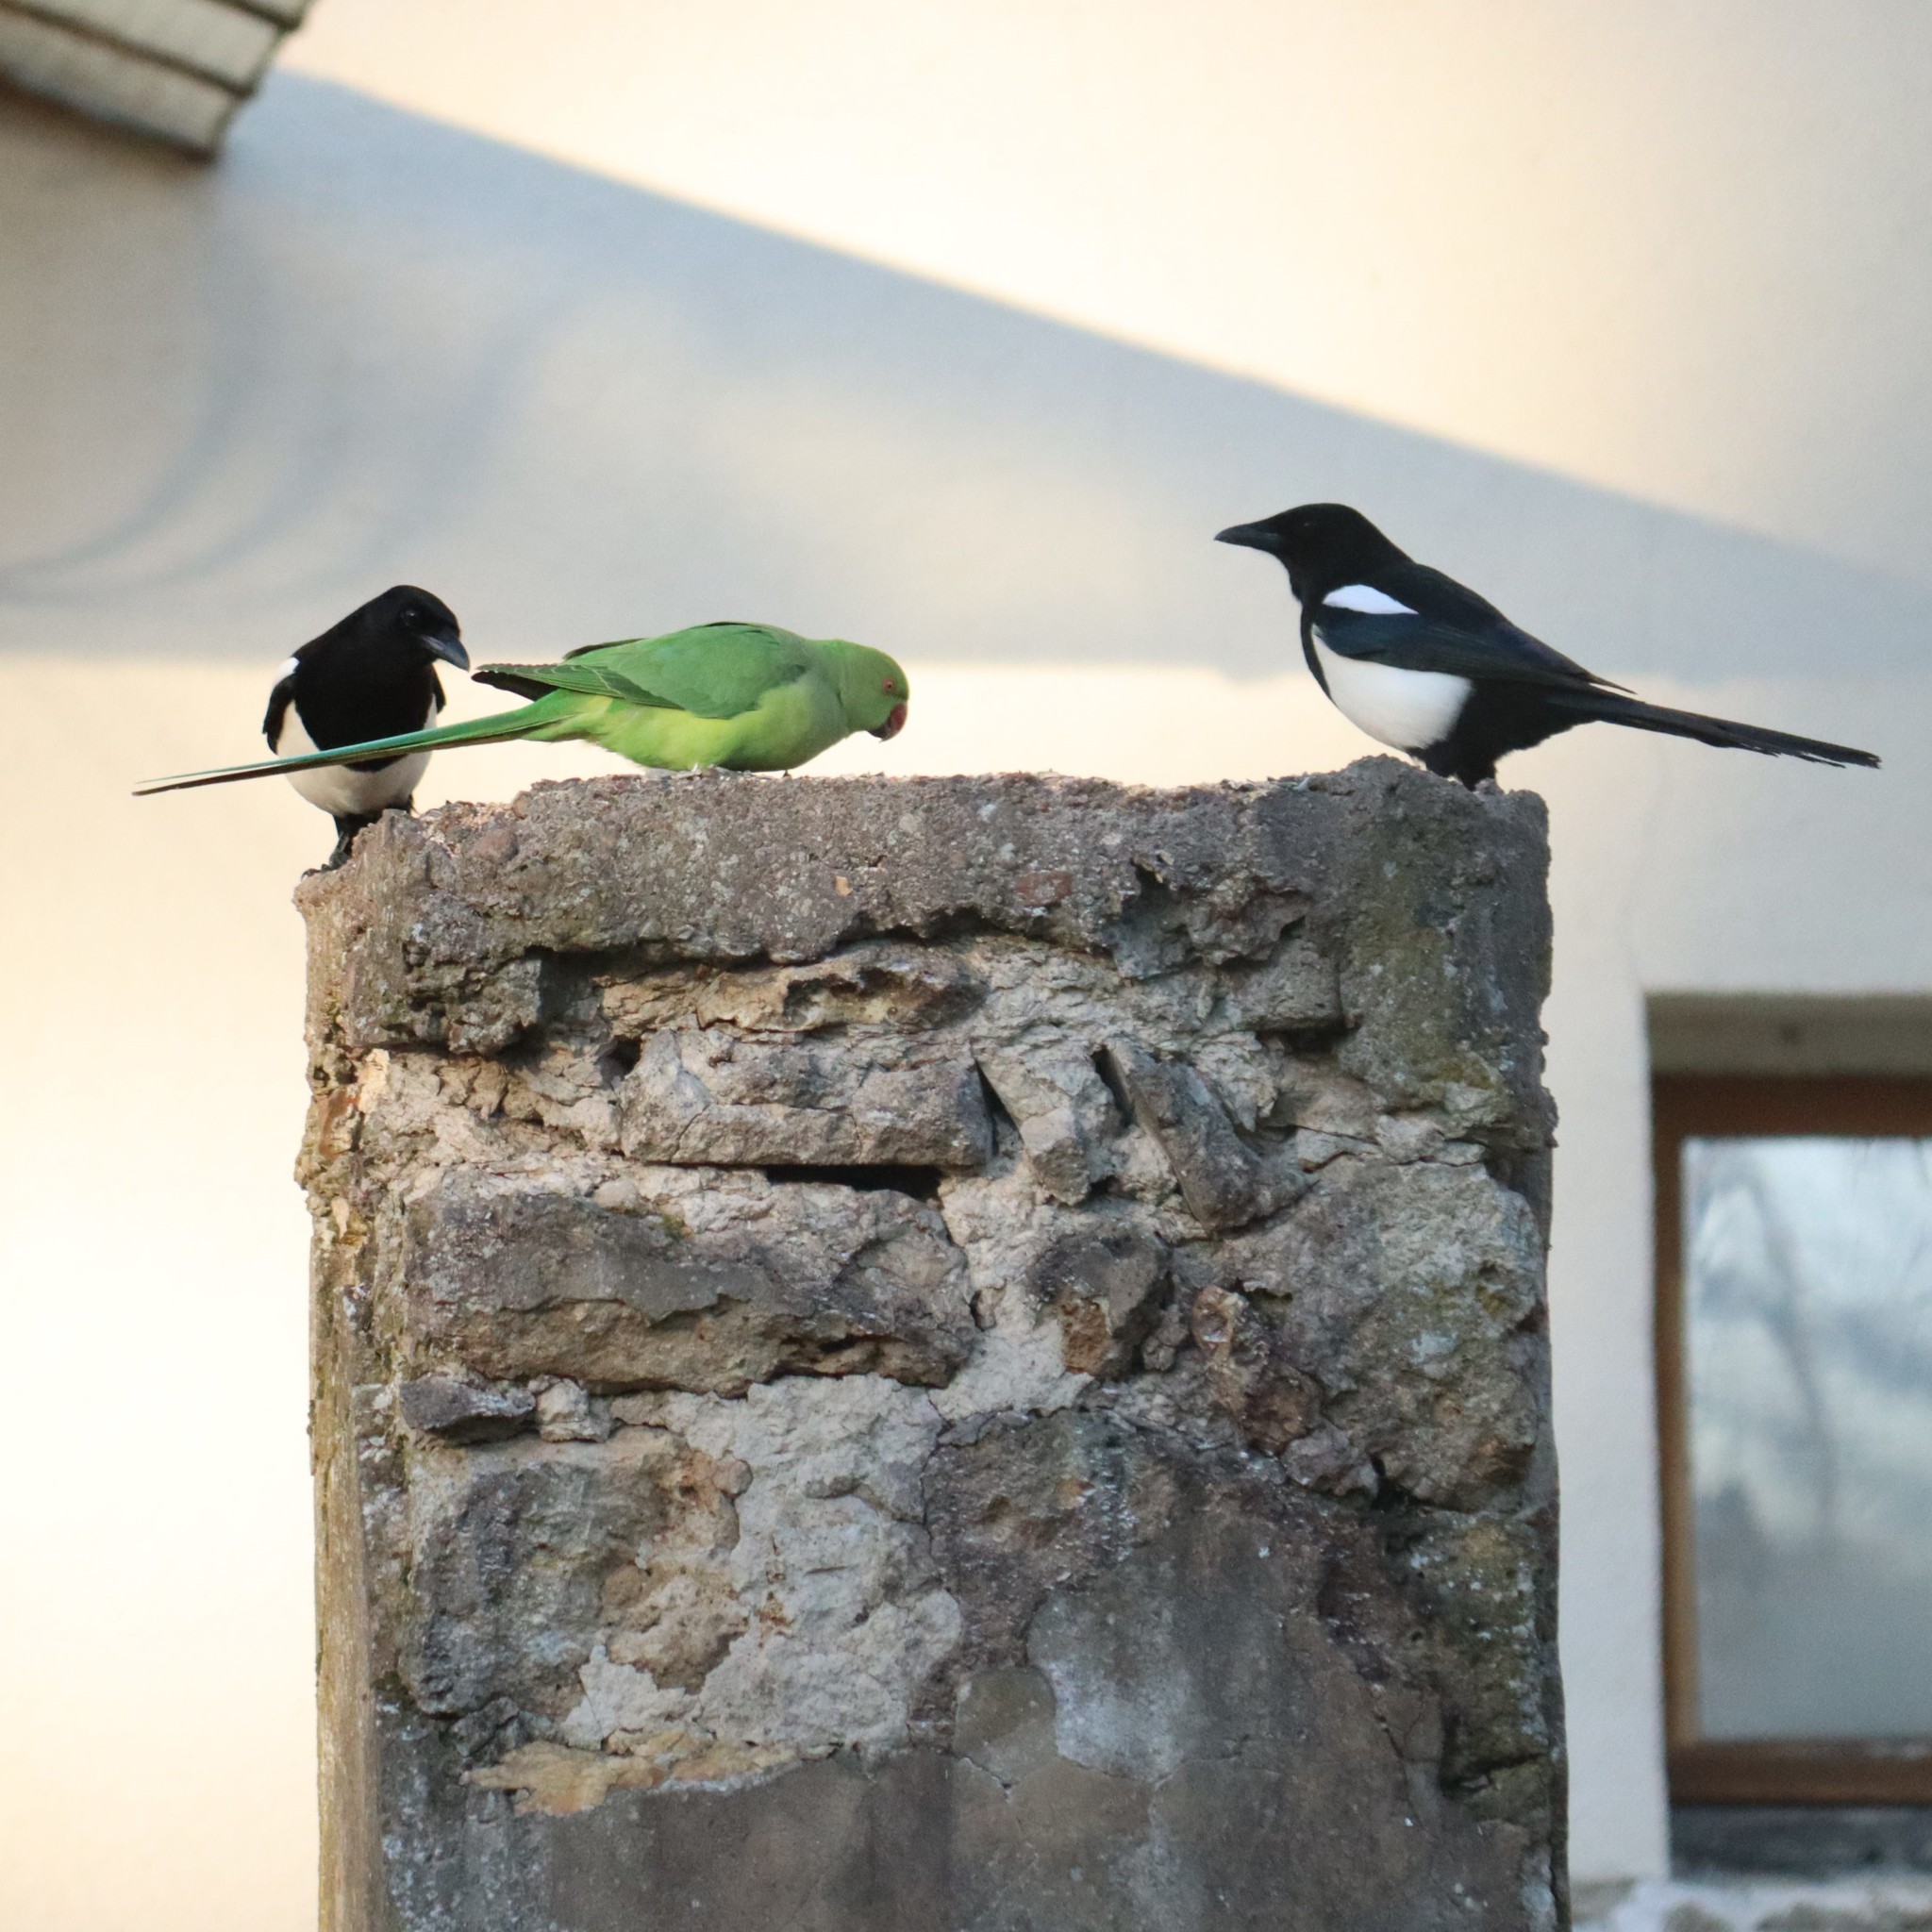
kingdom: Animalia
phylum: Chordata
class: Aves
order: Passeriformes
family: Corvidae
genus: Pica
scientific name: Pica pica
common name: Eurasian magpie
